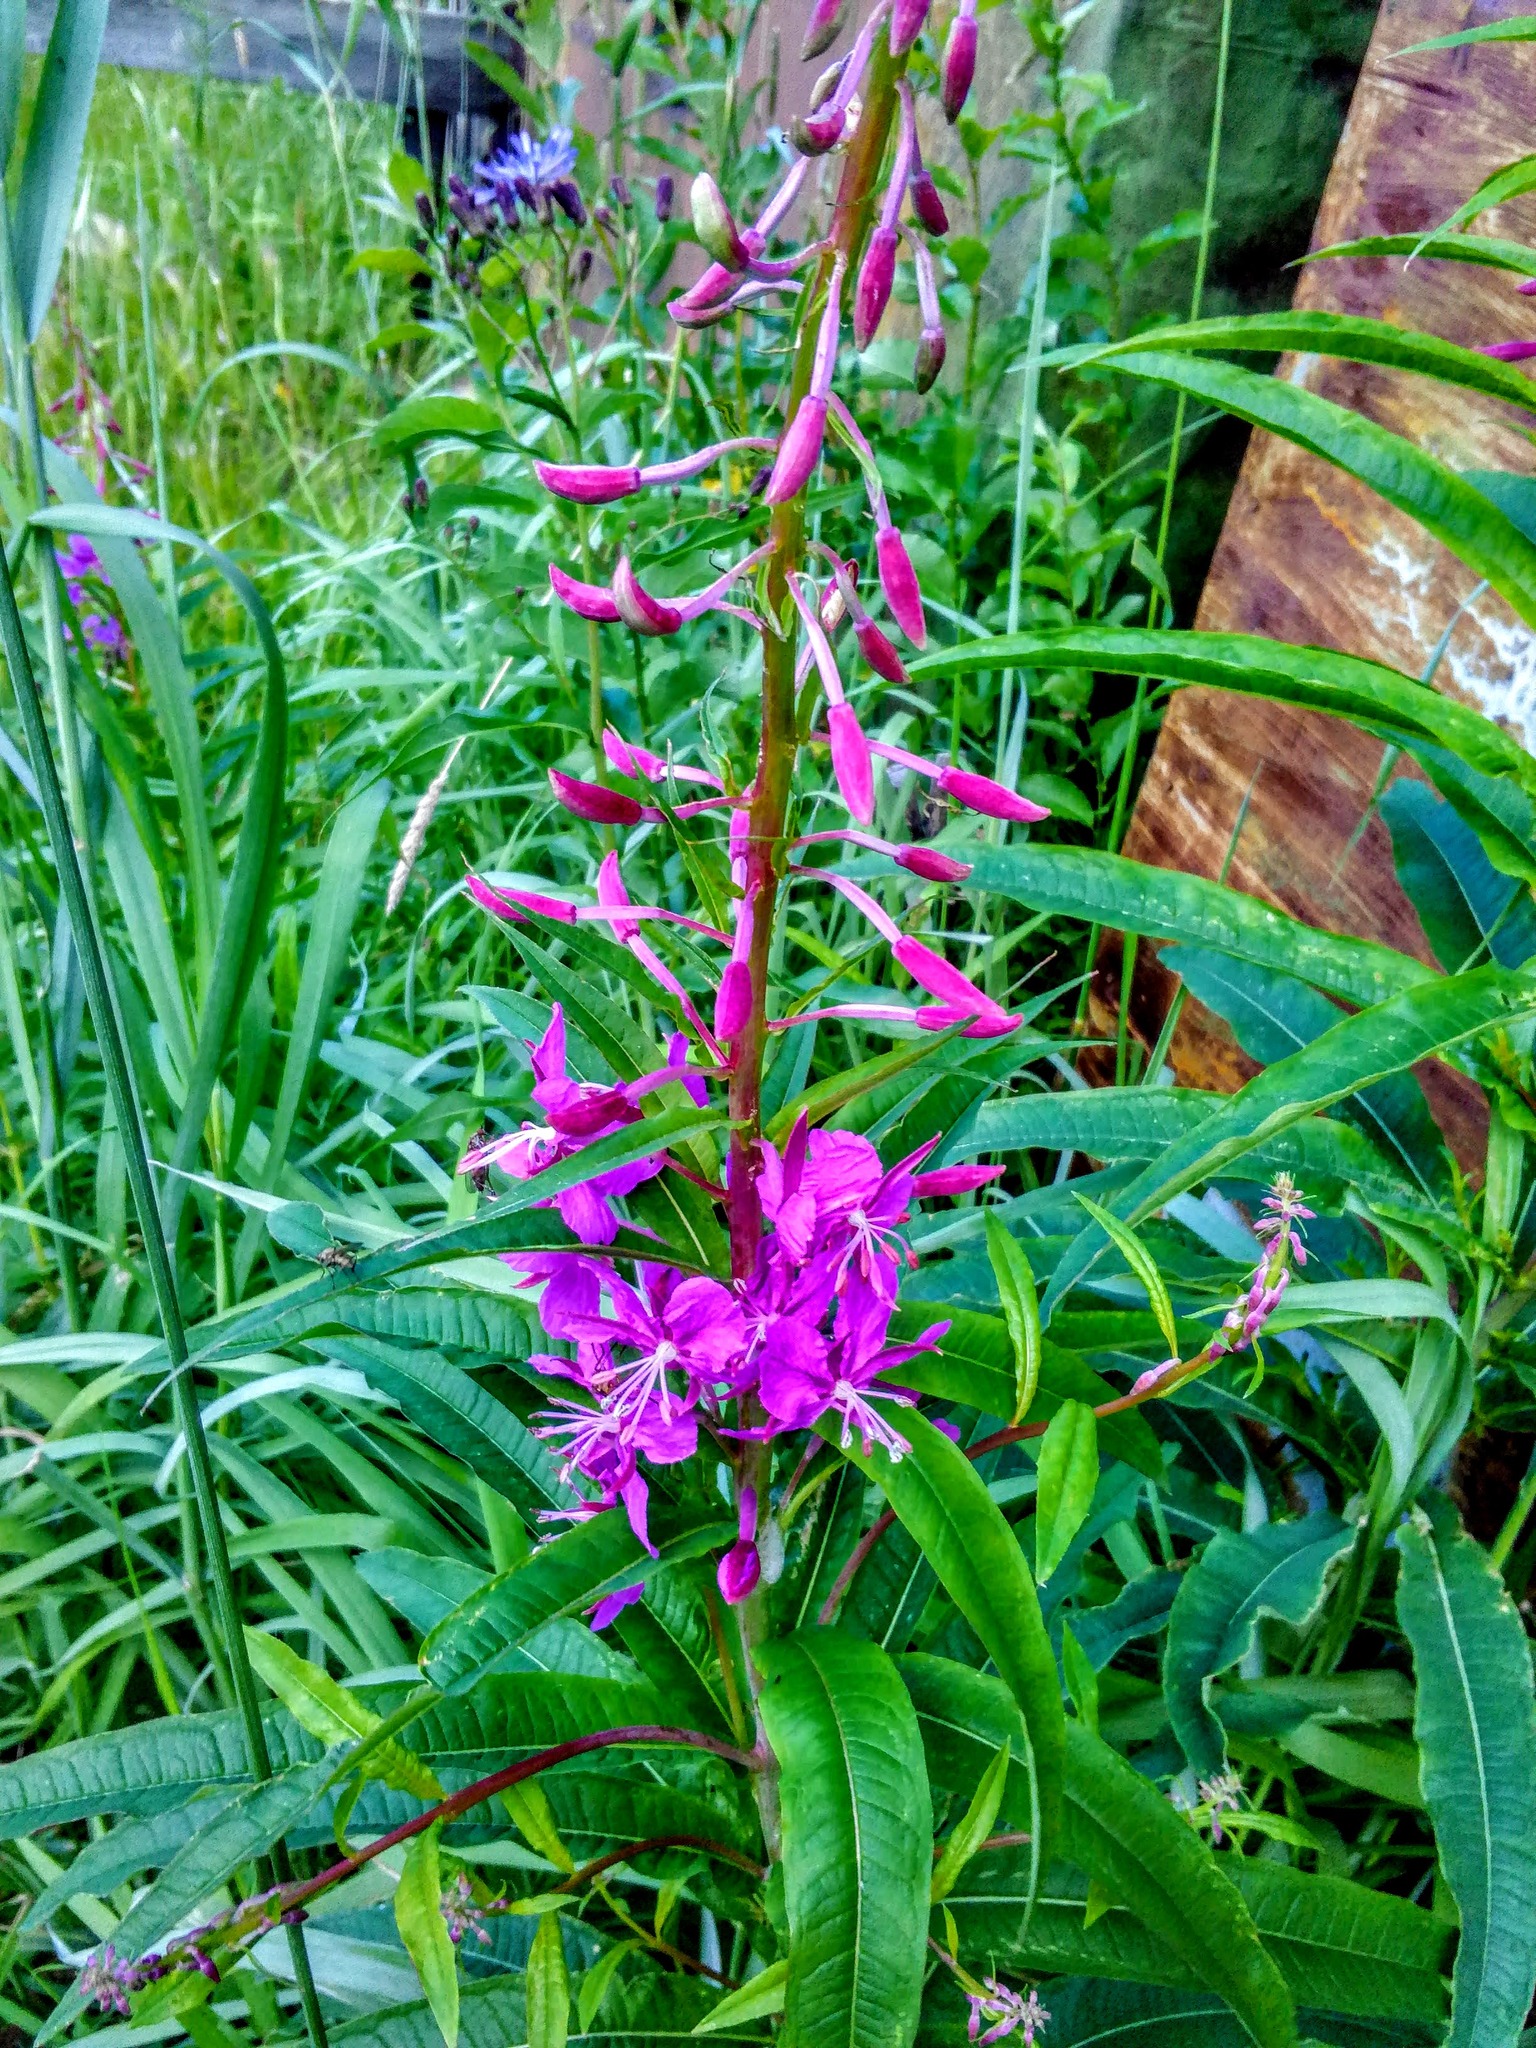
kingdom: Plantae
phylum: Tracheophyta
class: Magnoliopsida
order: Myrtales
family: Onagraceae
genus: Chamaenerion
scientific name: Chamaenerion angustifolium
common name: Fireweed
